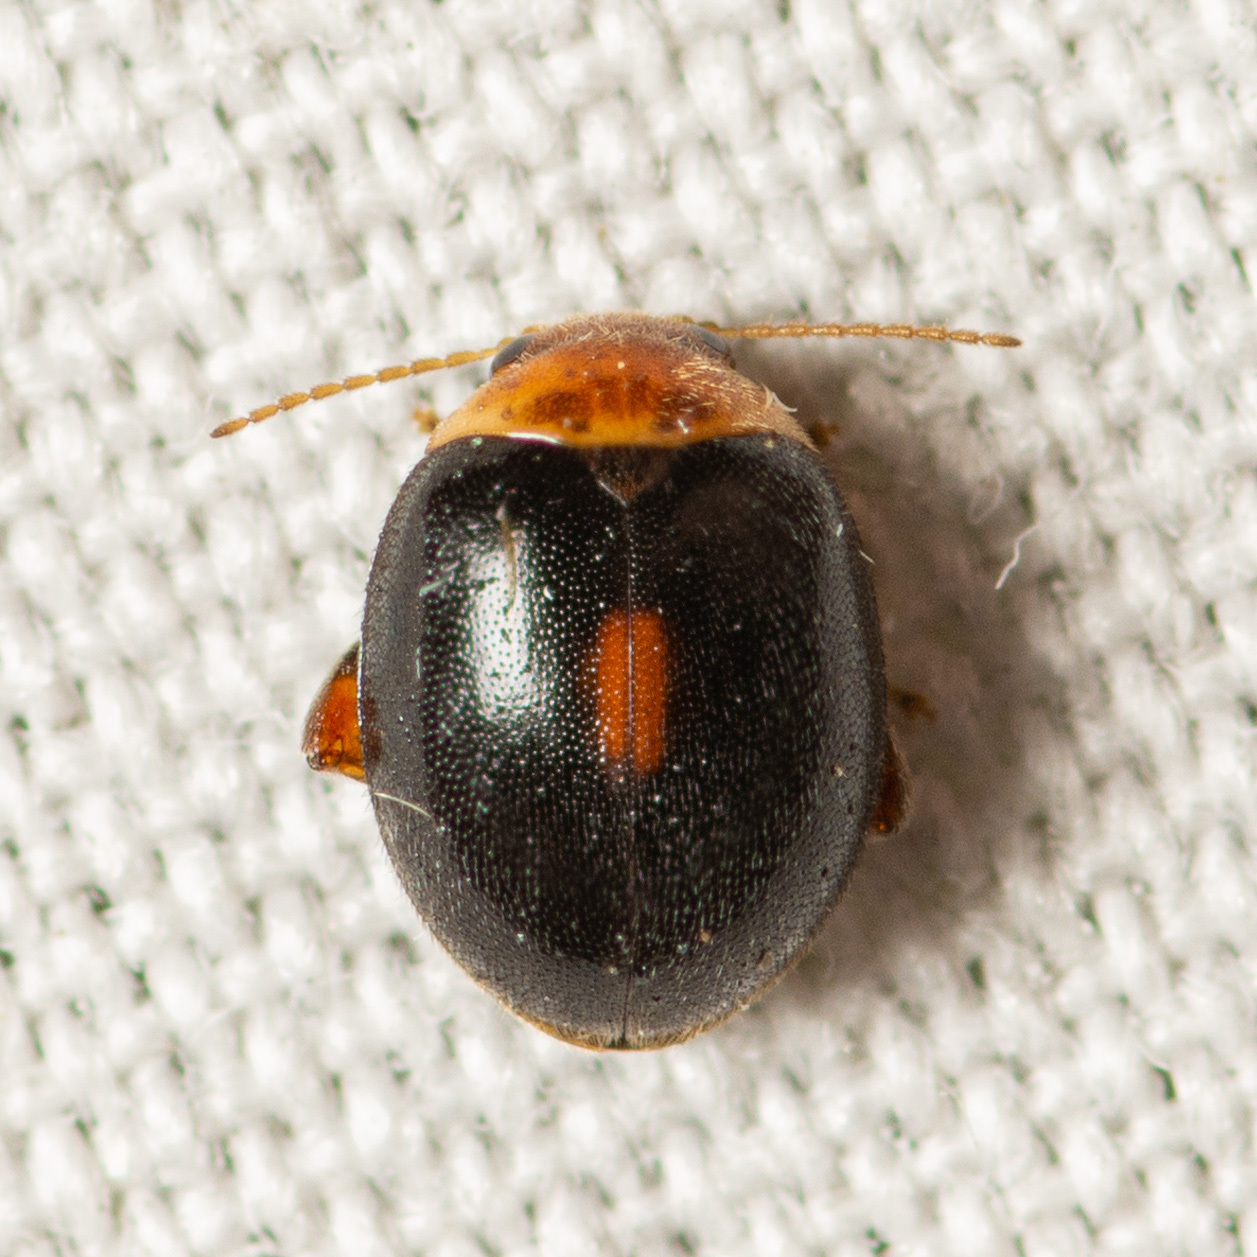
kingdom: Animalia
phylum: Arthropoda
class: Insecta
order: Coleoptera
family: Scirtidae
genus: Scirtes
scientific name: Scirtes orbiculatus
